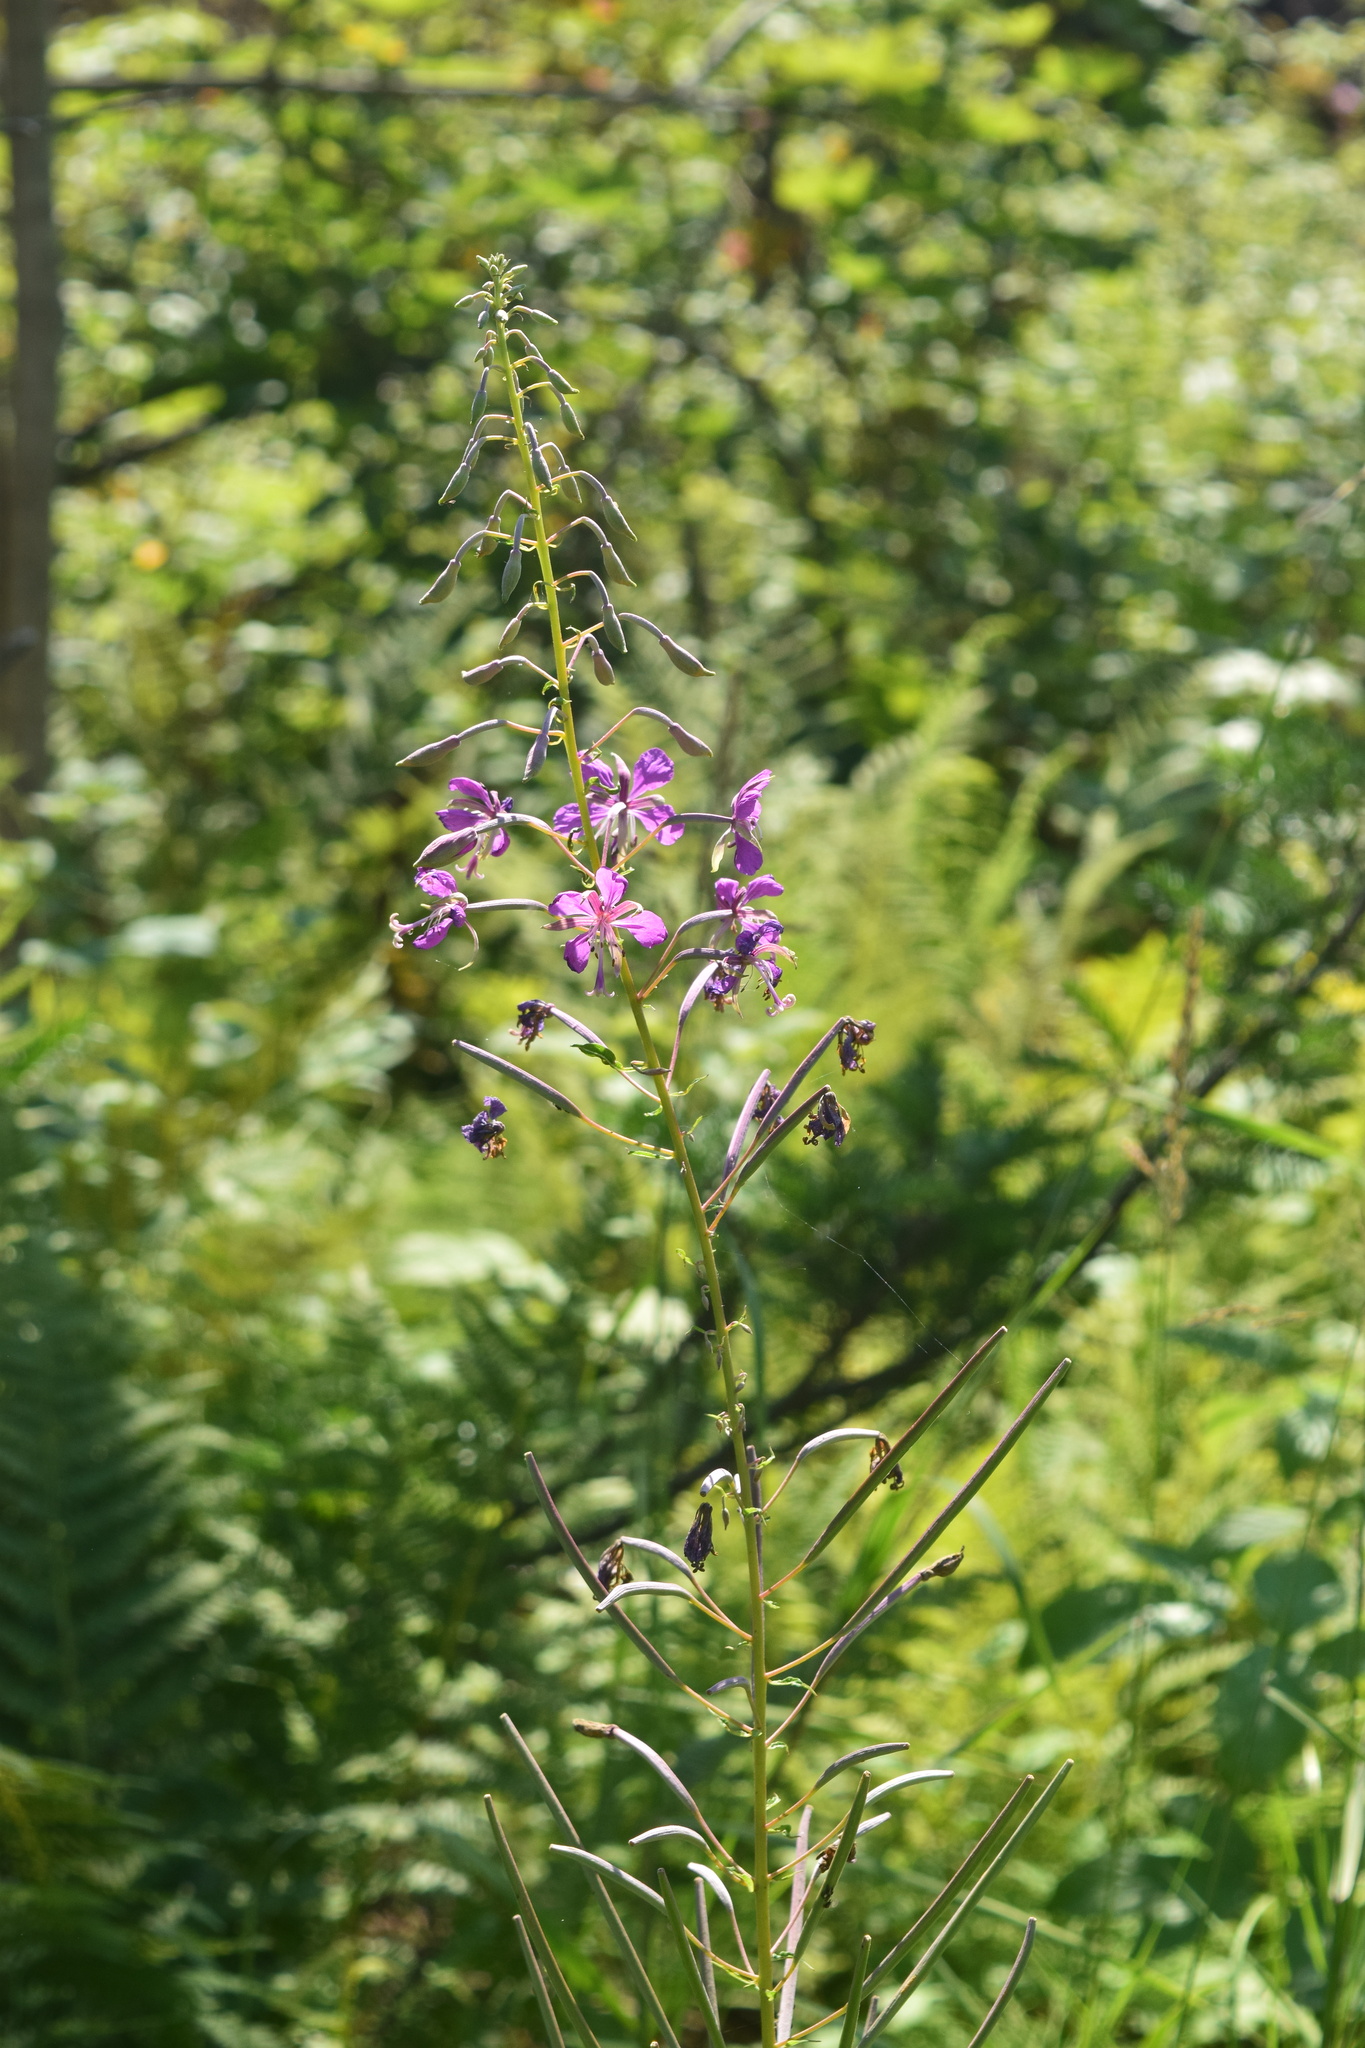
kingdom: Plantae
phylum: Tracheophyta
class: Magnoliopsida
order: Myrtales
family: Onagraceae
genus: Chamaenerion
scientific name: Chamaenerion angustifolium
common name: Fireweed
